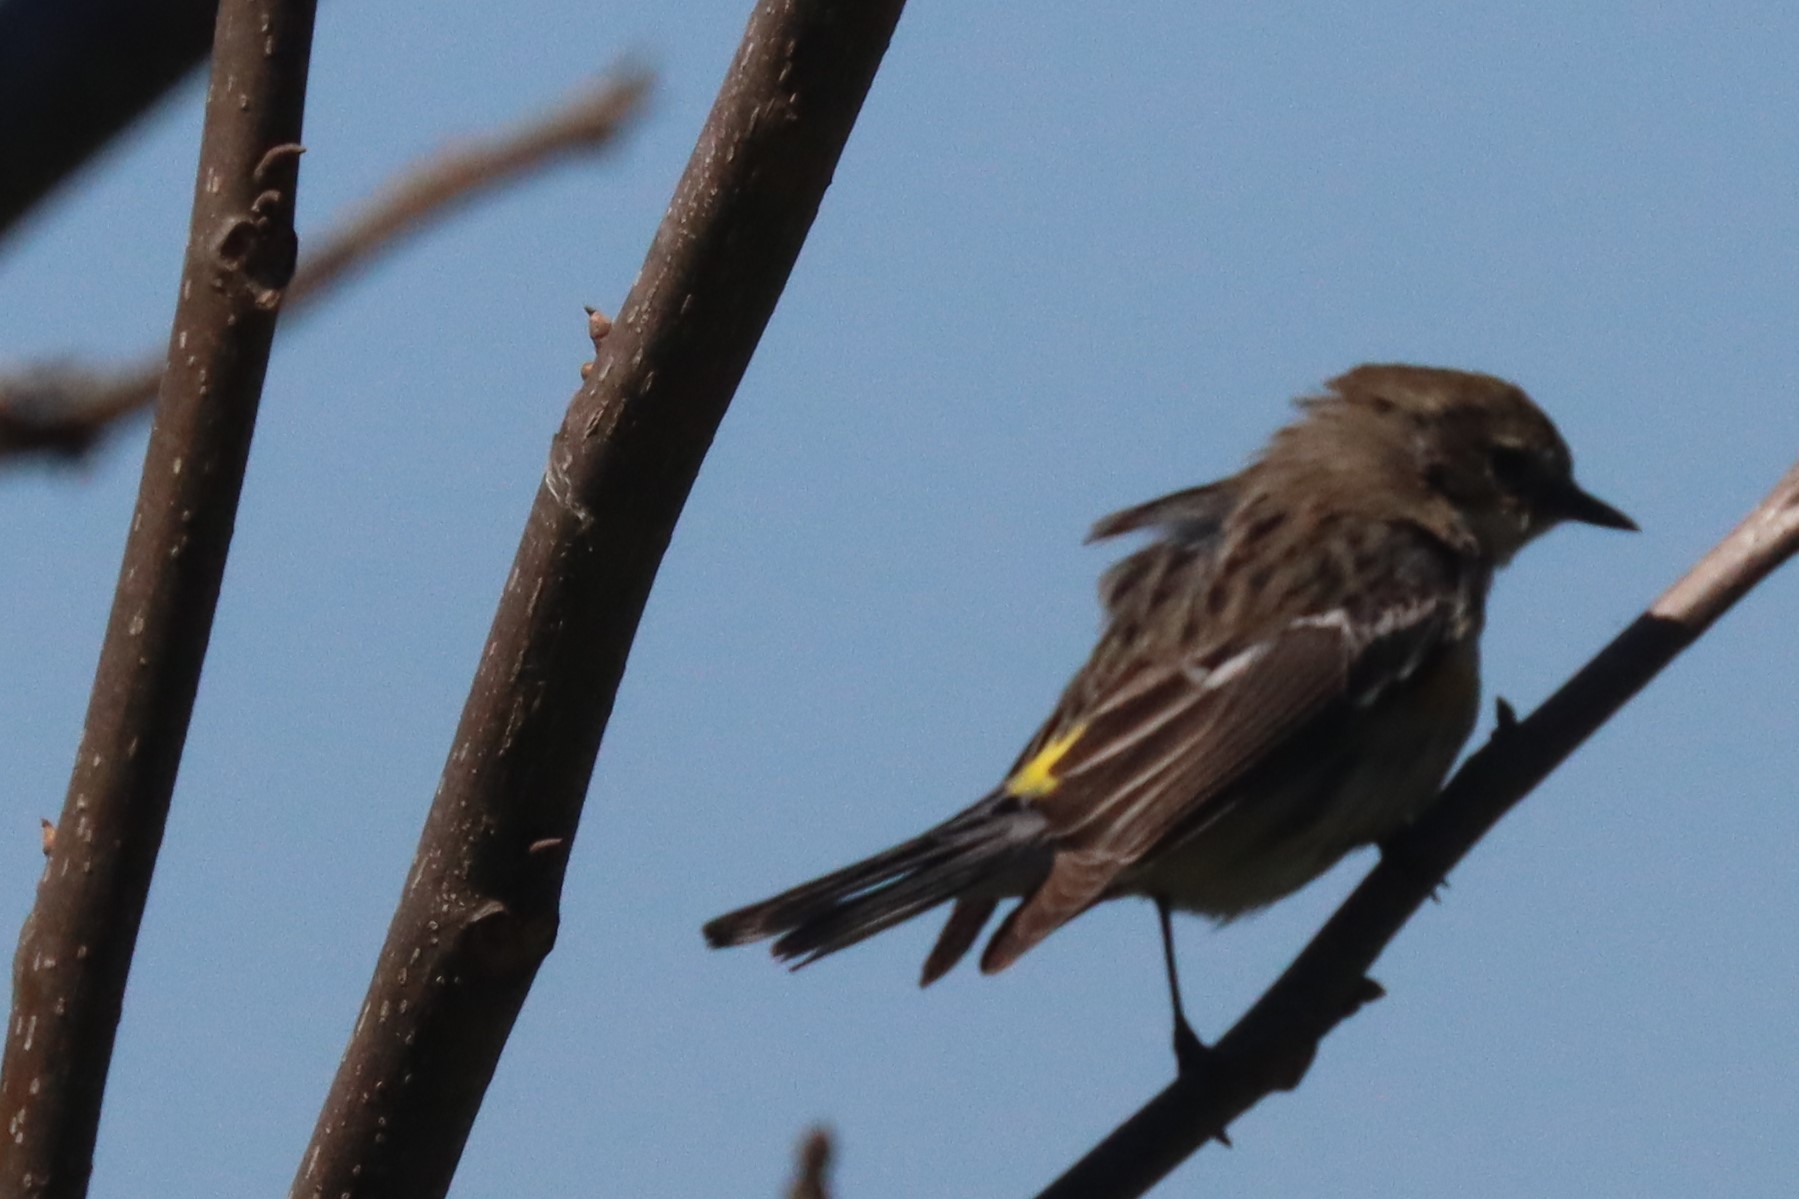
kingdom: Animalia
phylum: Chordata
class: Aves
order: Passeriformes
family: Parulidae
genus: Setophaga
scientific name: Setophaga coronata
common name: Myrtle warbler
